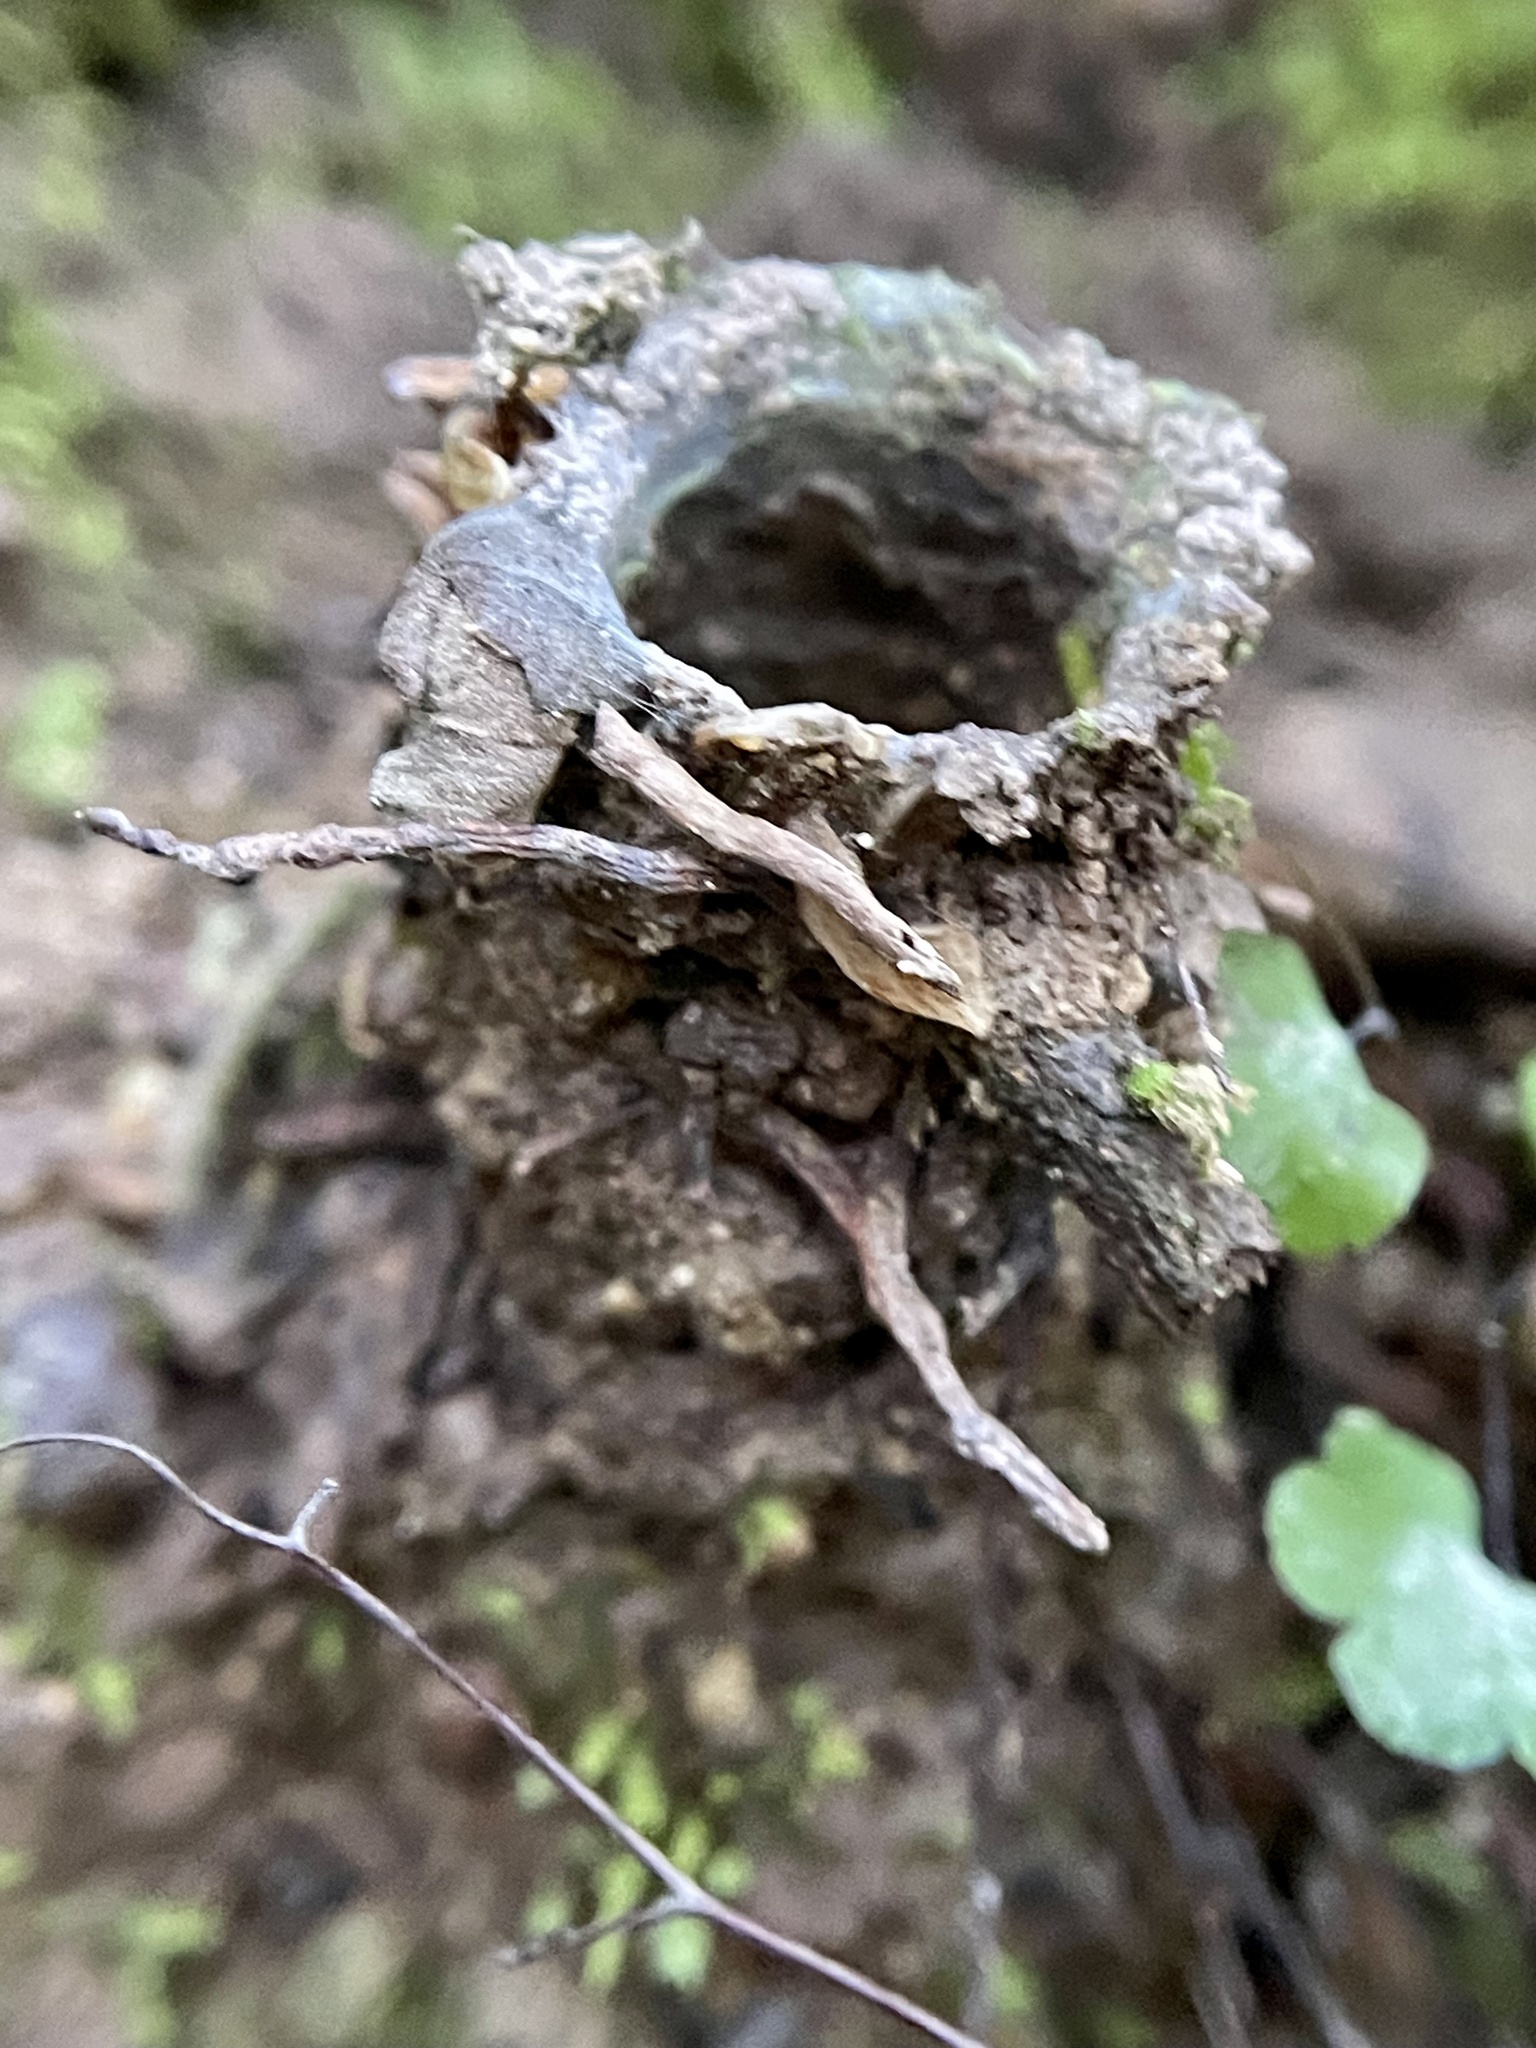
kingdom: Animalia
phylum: Arthropoda
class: Arachnida
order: Araneae
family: Antrodiaetidae
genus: Atypoides
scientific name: Atypoides riversi
